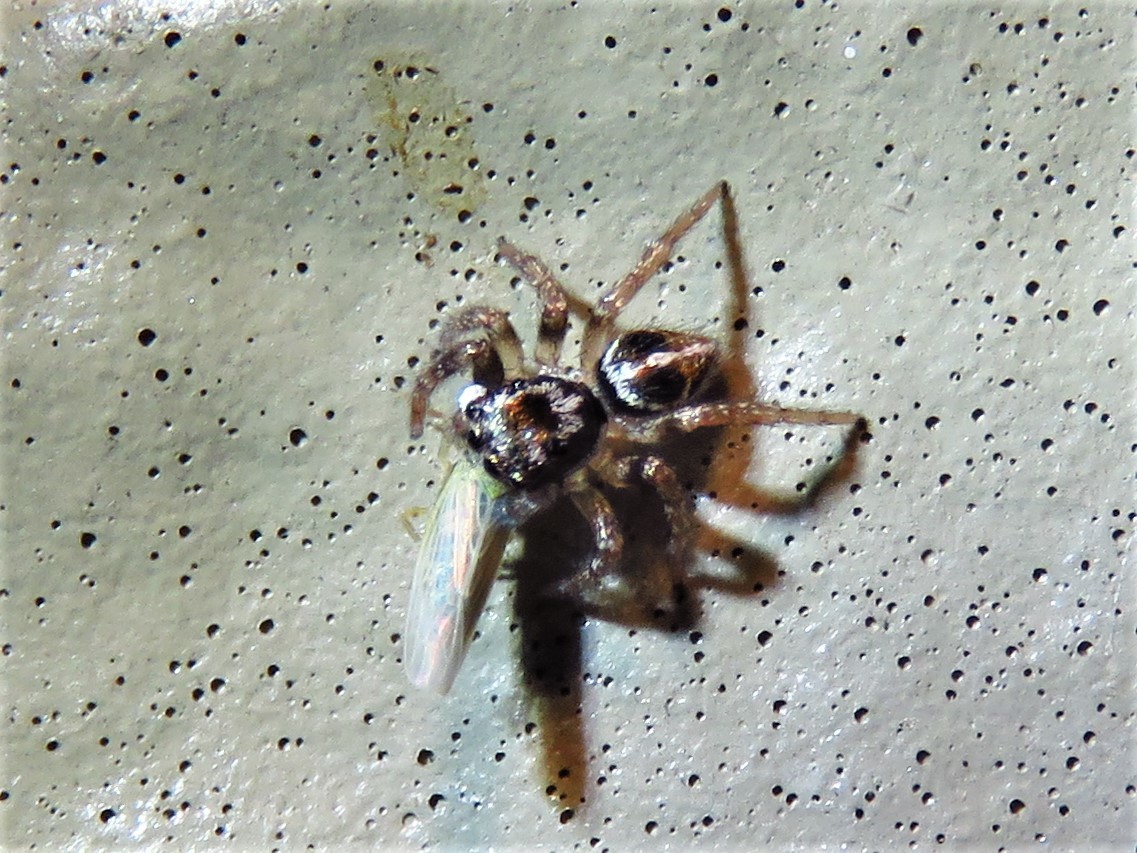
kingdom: Animalia
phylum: Arthropoda
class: Arachnida
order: Araneae
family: Salticidae
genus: Anasaitis
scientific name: Anasaitis canosa
